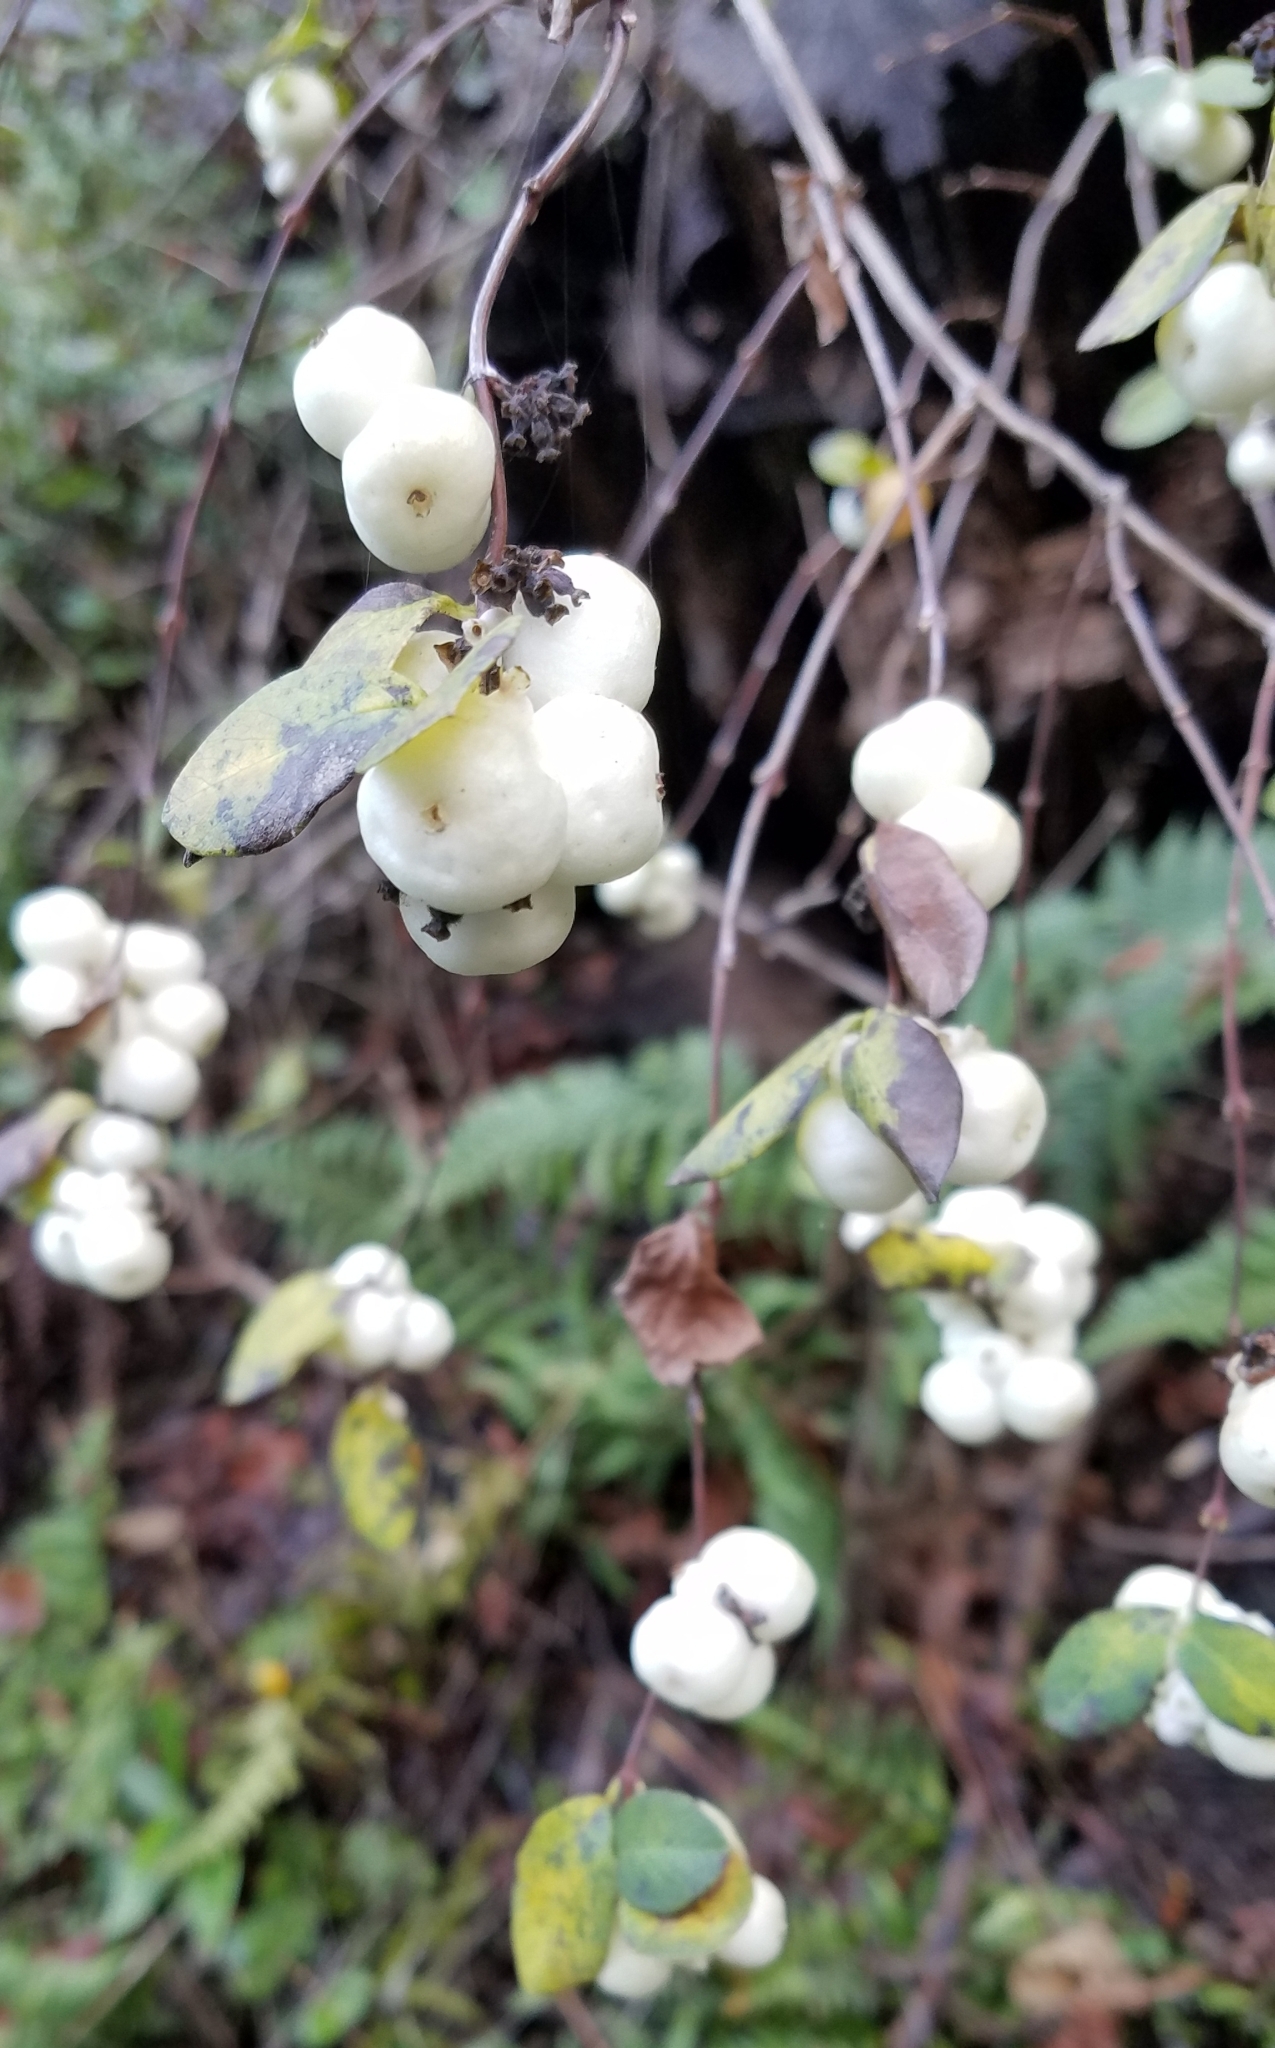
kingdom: Plantae
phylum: Tracheophyta
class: Magnoliopsida
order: Dipsacales
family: Caprifoliaceae
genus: Symphoricarpos
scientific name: Symphoricarpos albus
